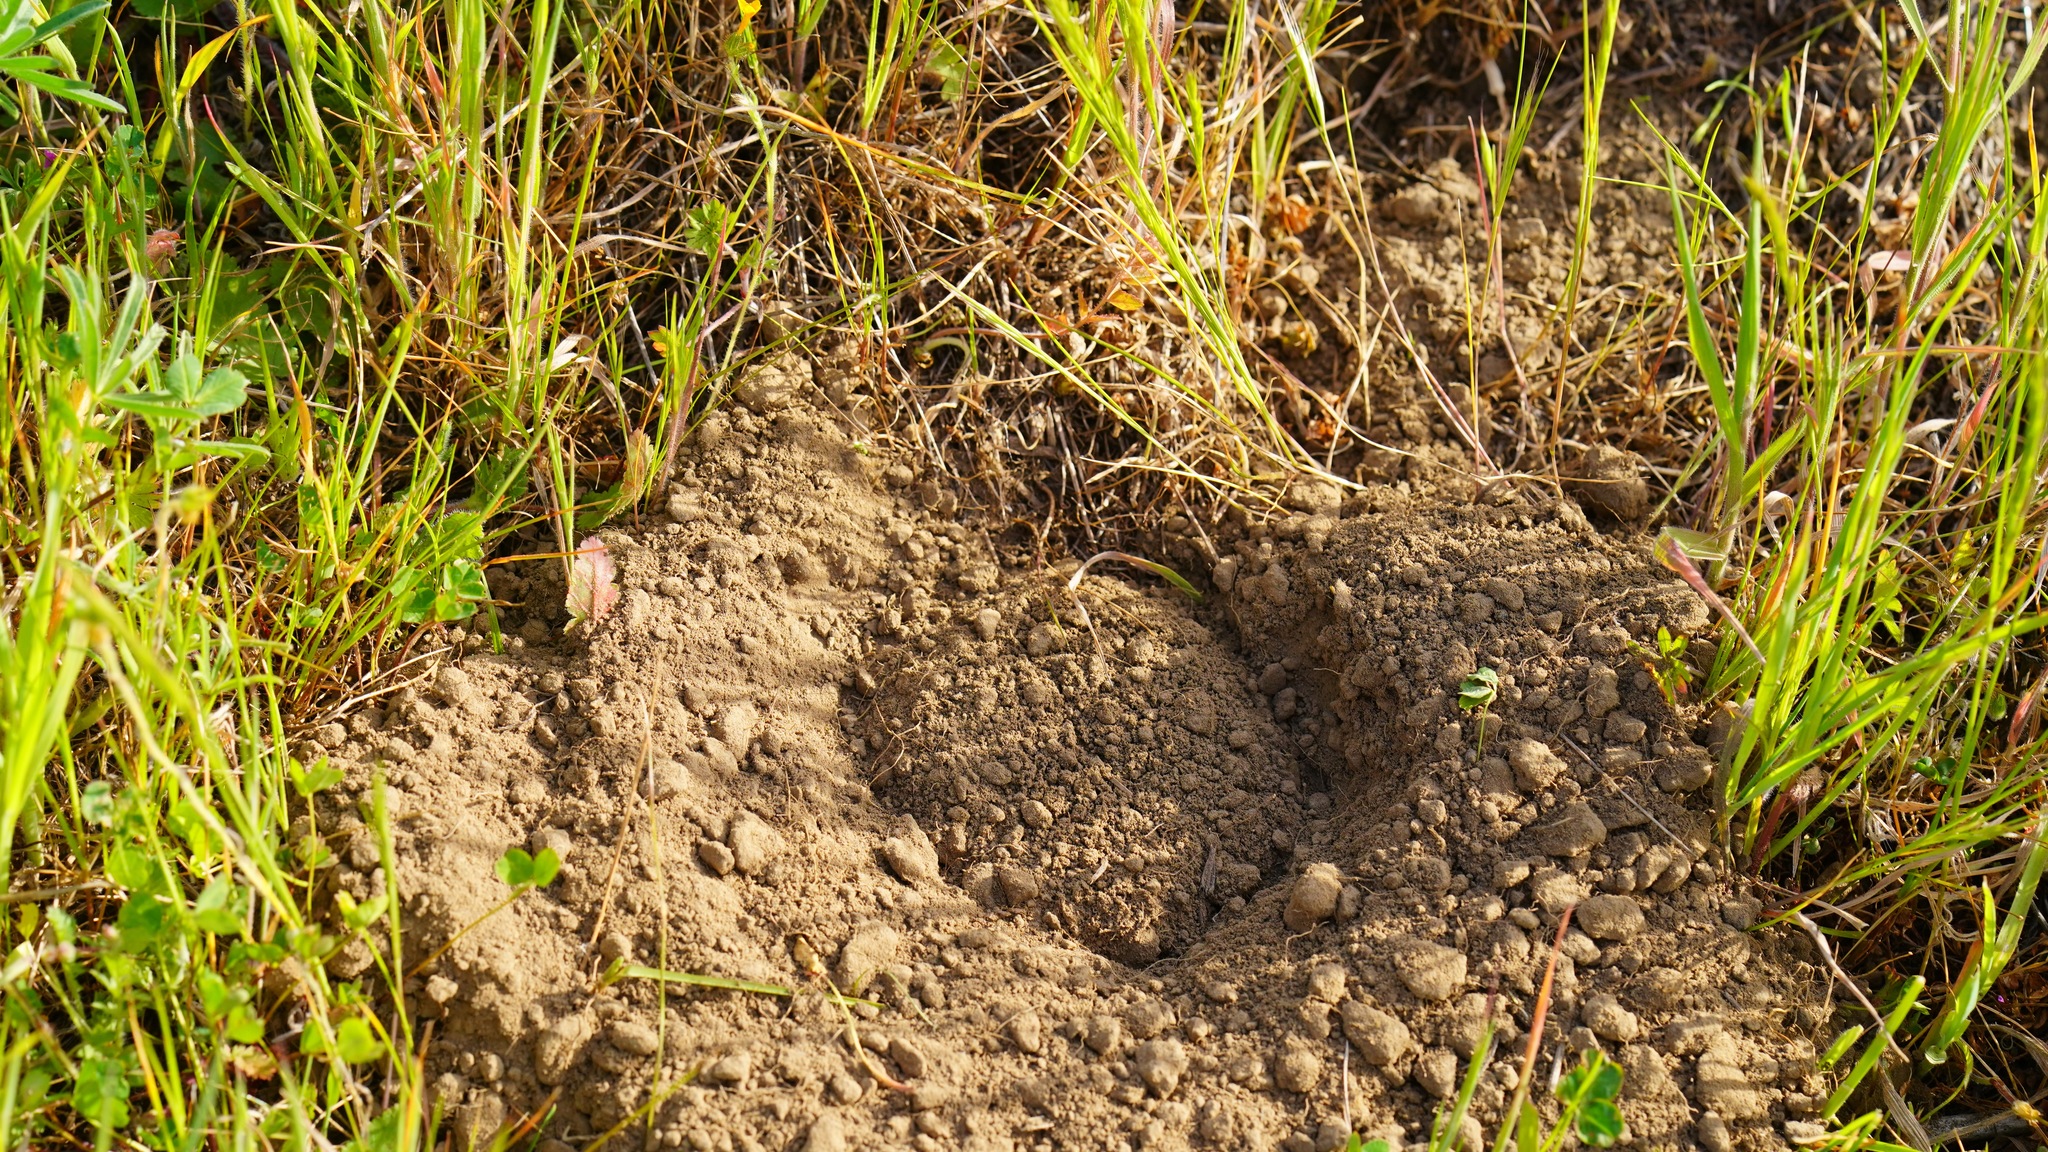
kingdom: Animalia
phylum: Chordata
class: Mammalia
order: Rodentia
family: Geomyidae
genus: Thomomys
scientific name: Thomomys bottae
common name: Botta's pocket gopher
